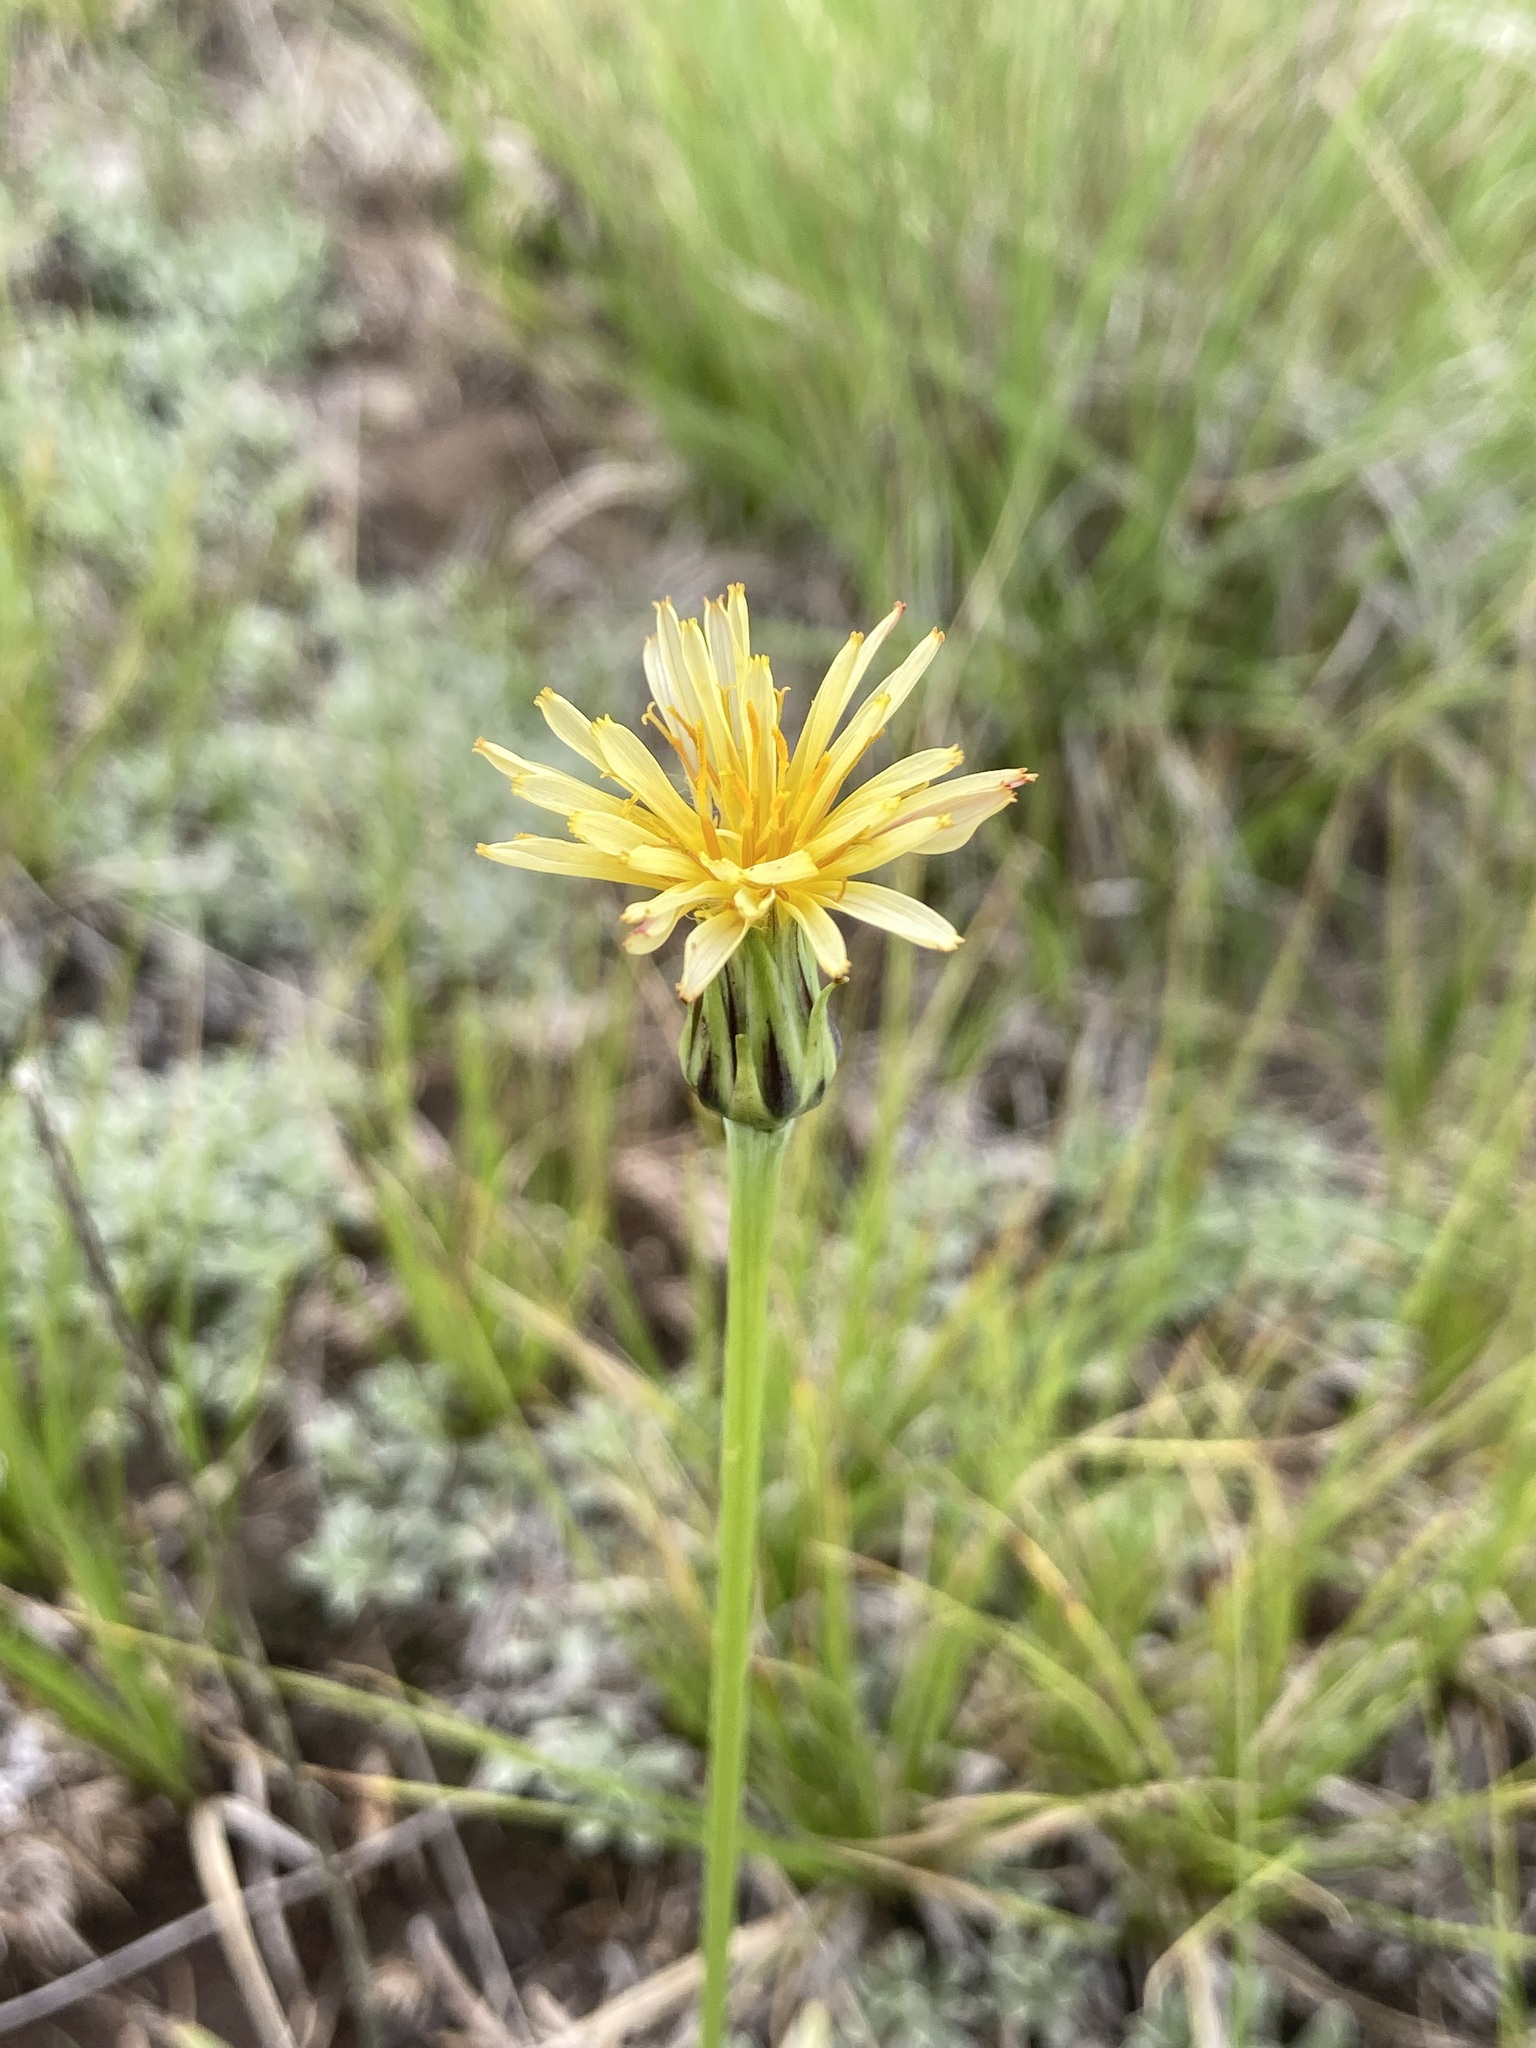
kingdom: Plantae
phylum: Tracheophyta
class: Magnoliopsida
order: Asterales
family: Asteraceae
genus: Agoseris
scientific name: Agoseris glauca
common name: Prairie agoseris
